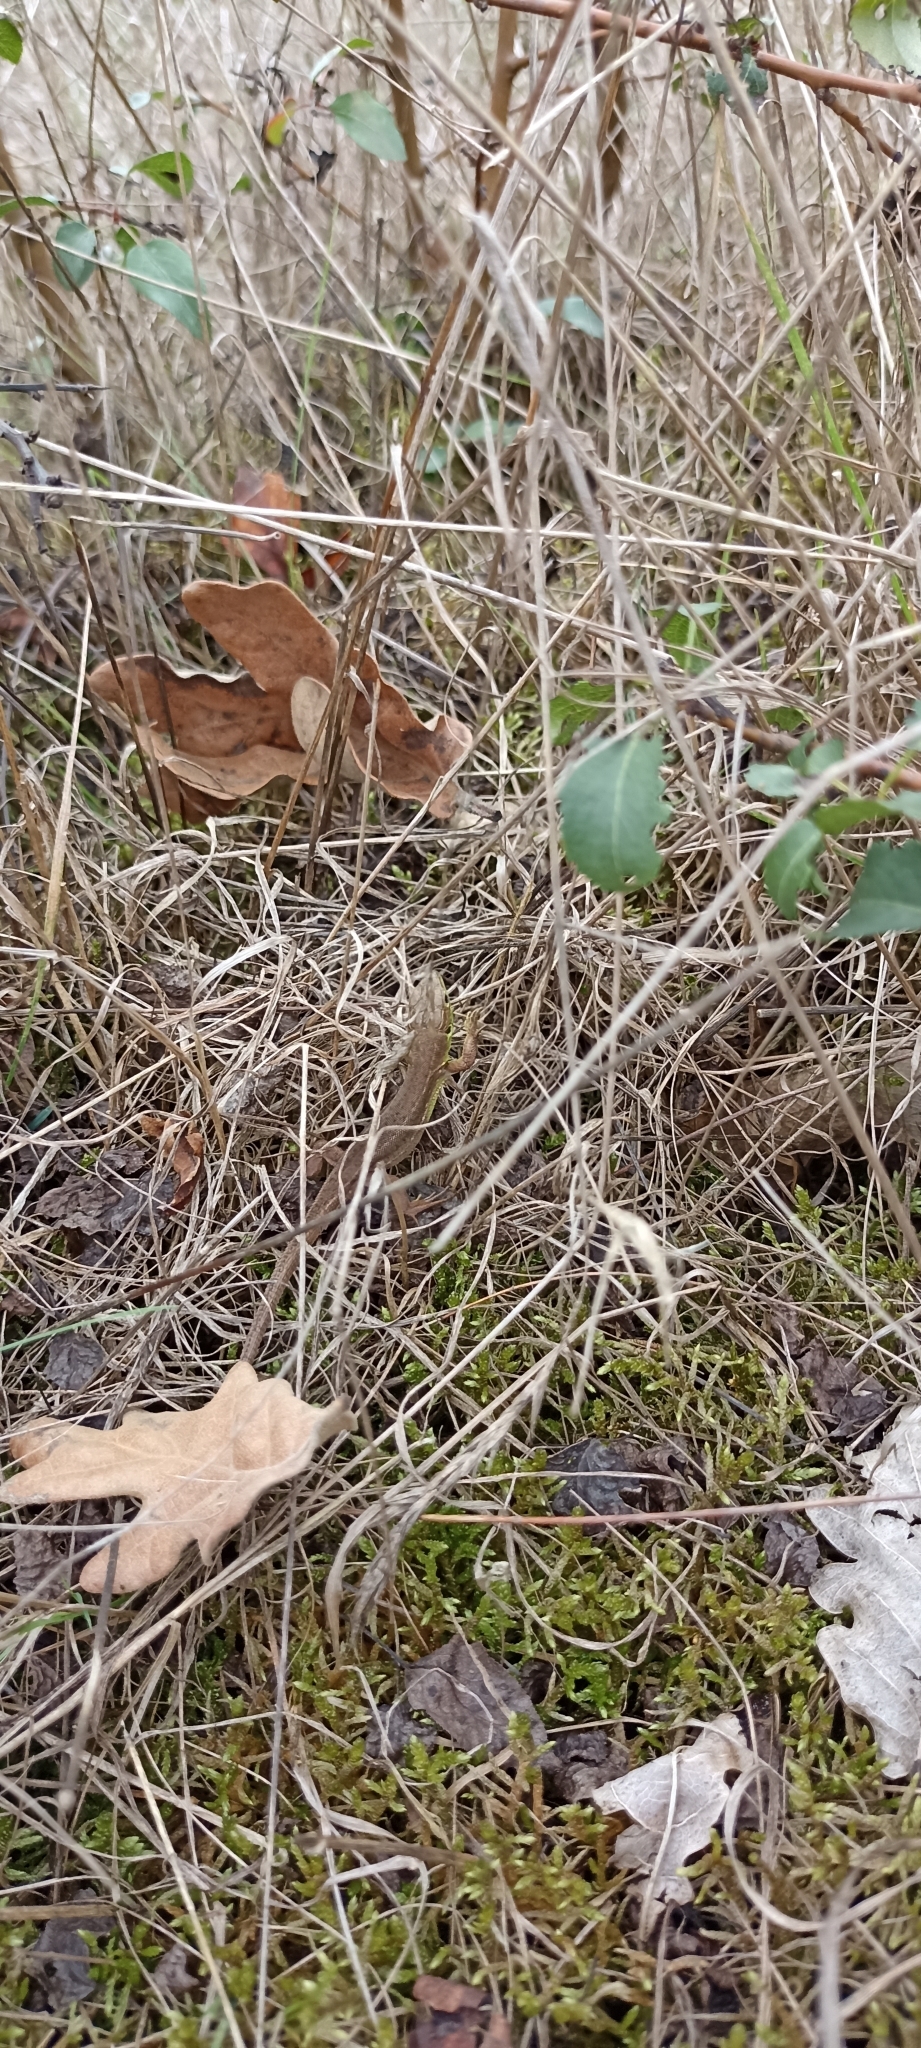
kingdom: Animalia
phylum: Chordata
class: Squamata
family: Lacertidae
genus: Lacerta
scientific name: Lacerta bilineata
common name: Western green lizard
